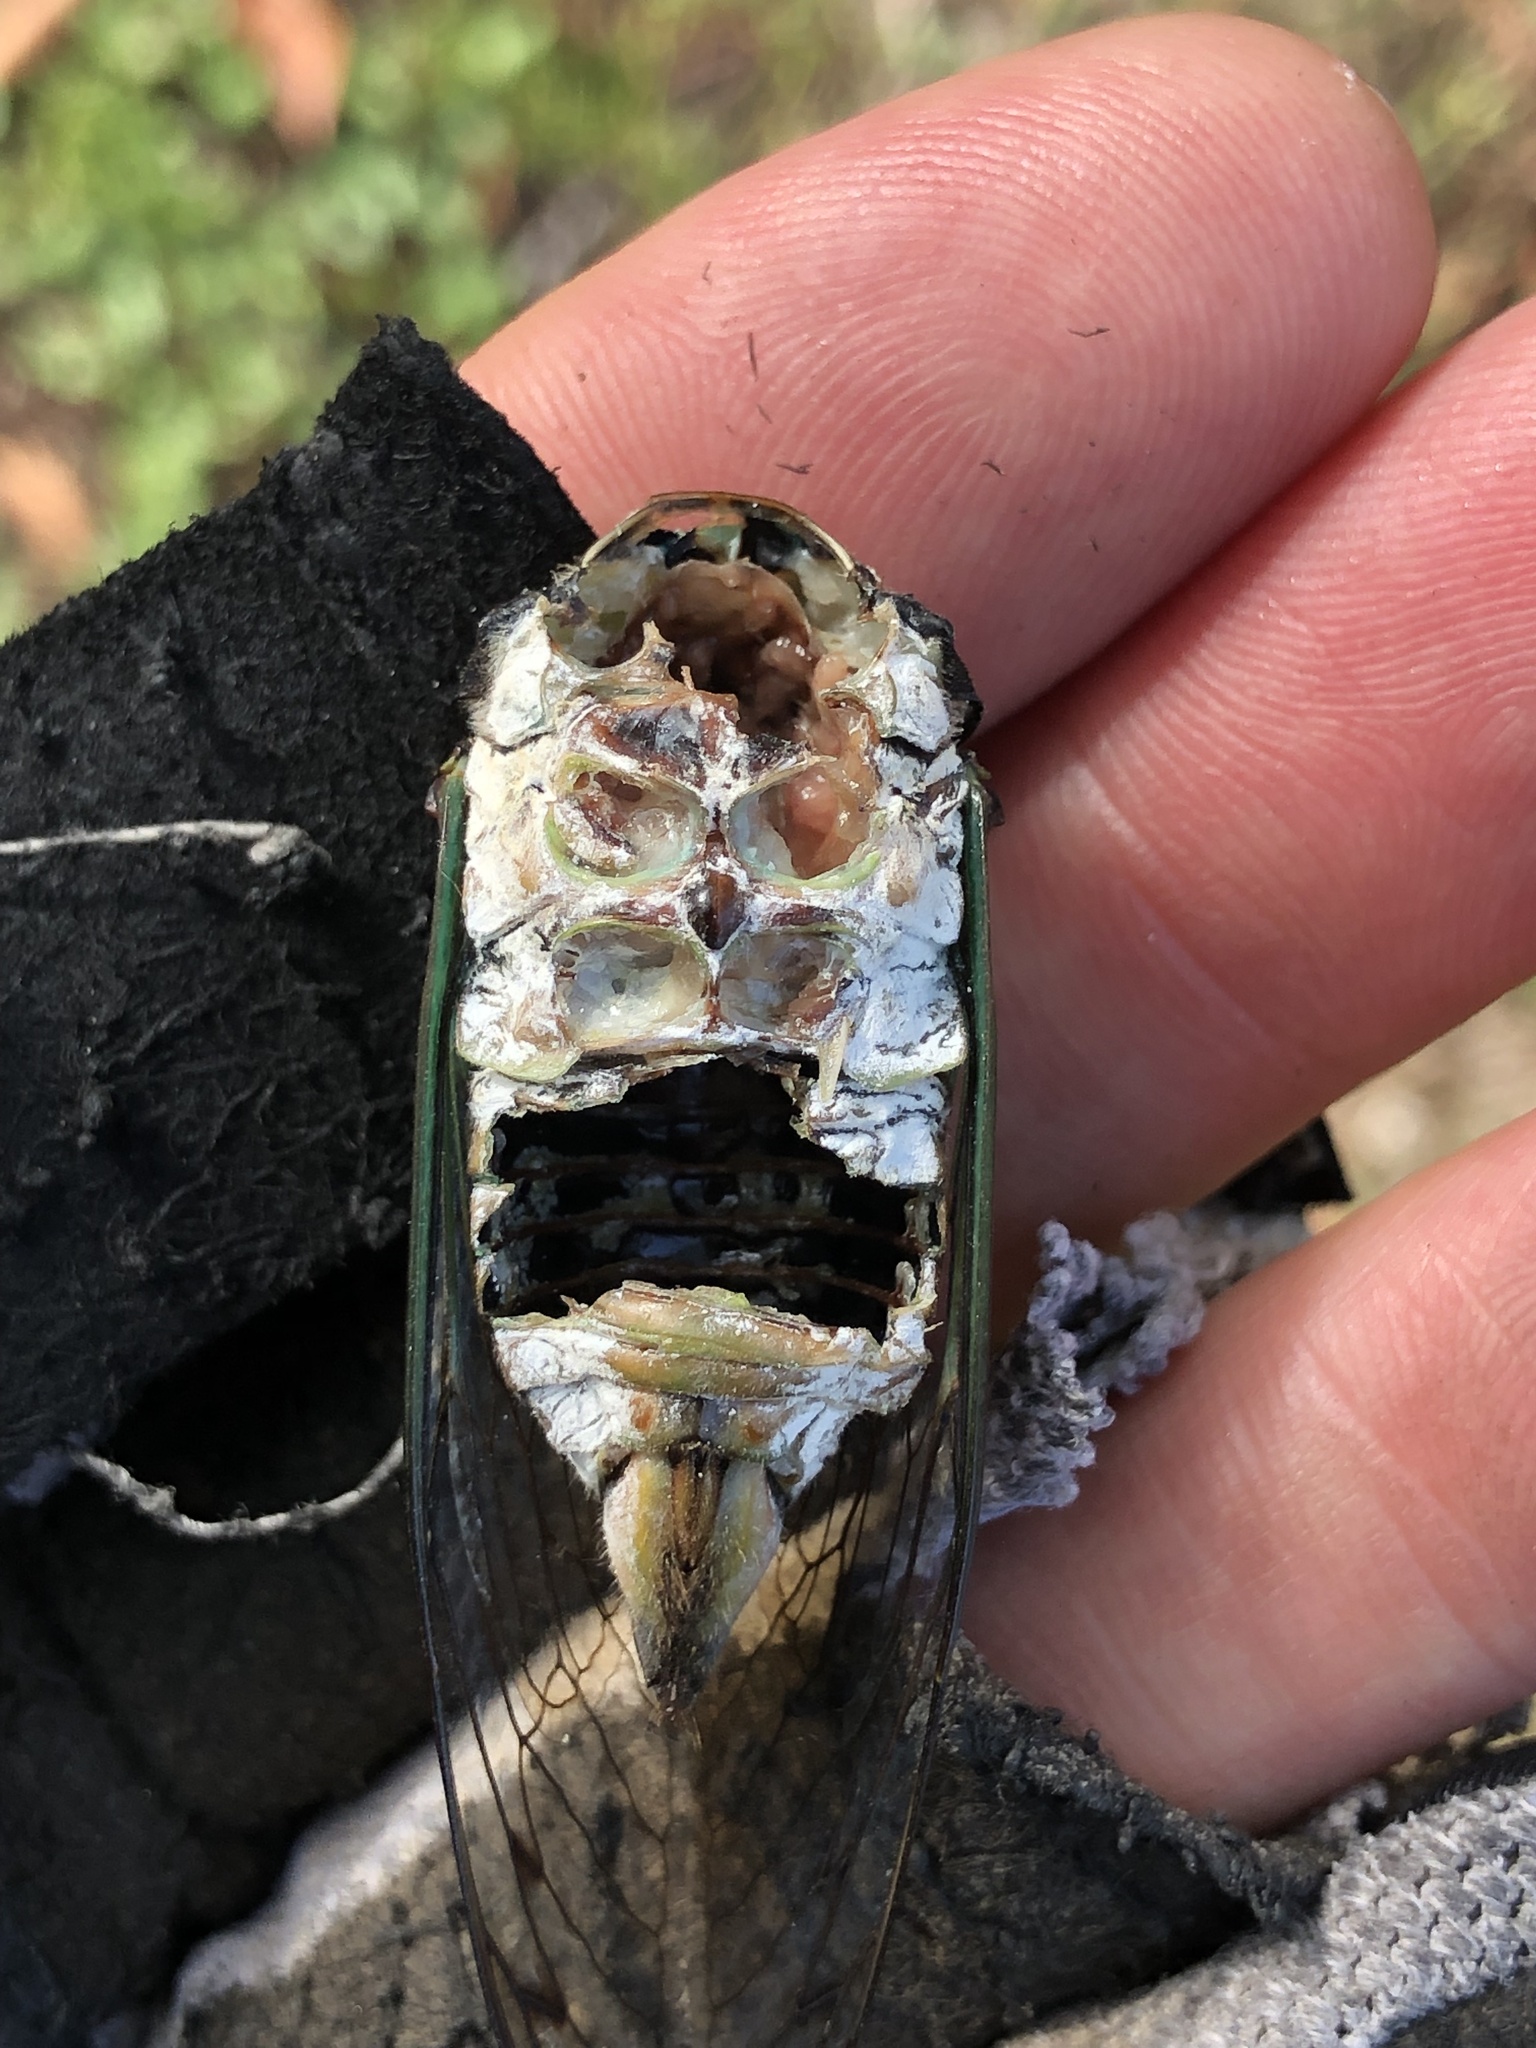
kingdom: Animalia
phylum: Arthropoda
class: Insecta
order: Hemiptera
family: Cicadidae
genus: Neotibicen
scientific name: Neotibicen tibicen
